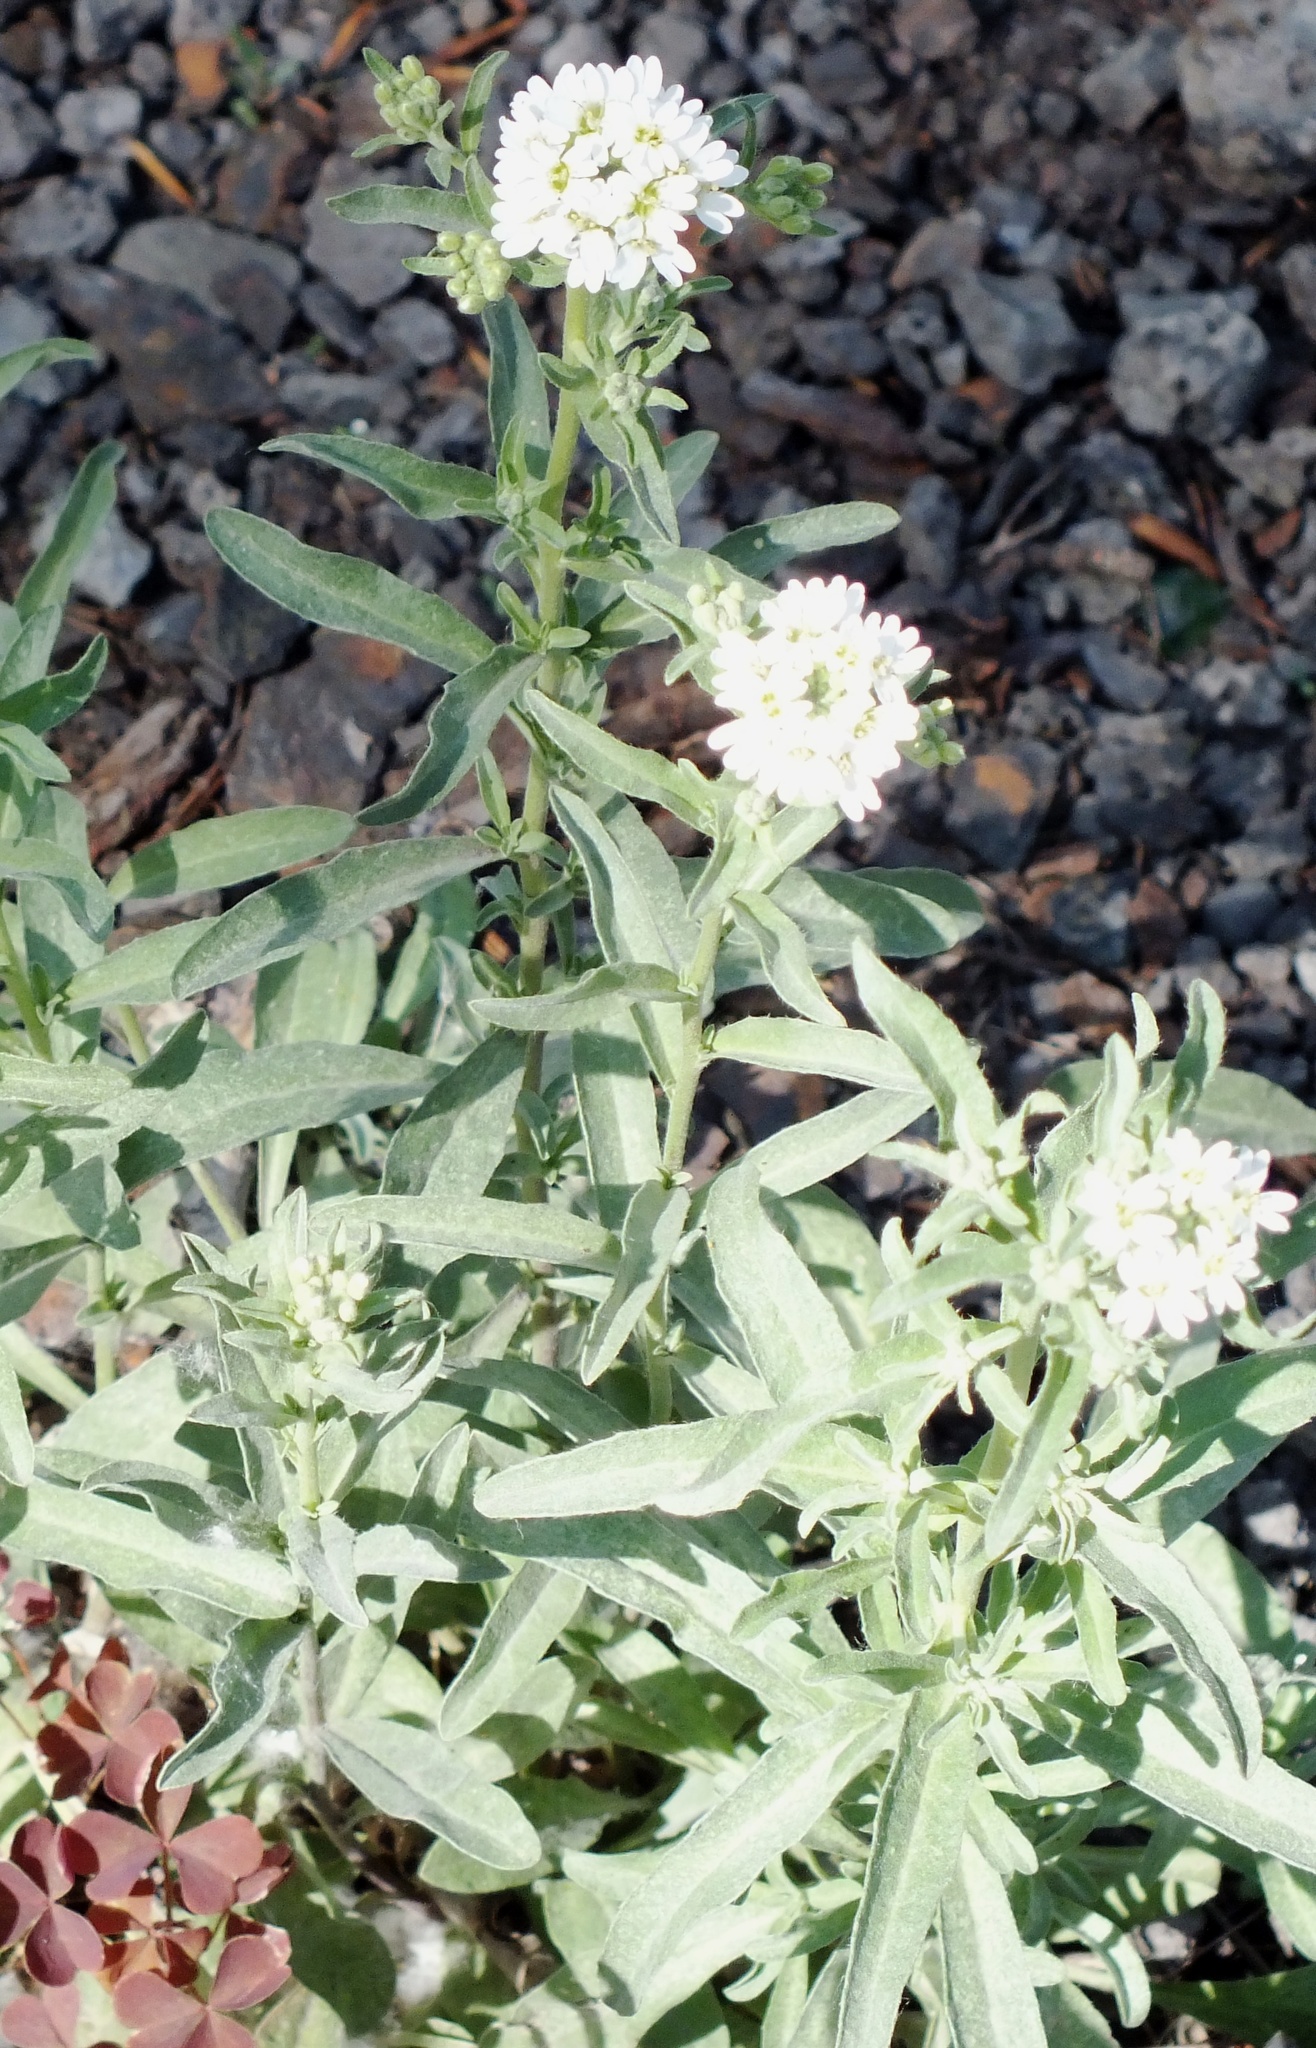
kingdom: Plantae
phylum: Tracheophyta
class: Magnoliopsida
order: Brassicales
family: Brassicaceae
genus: Berteroa
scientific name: Berteroa incana
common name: Hoary alison
